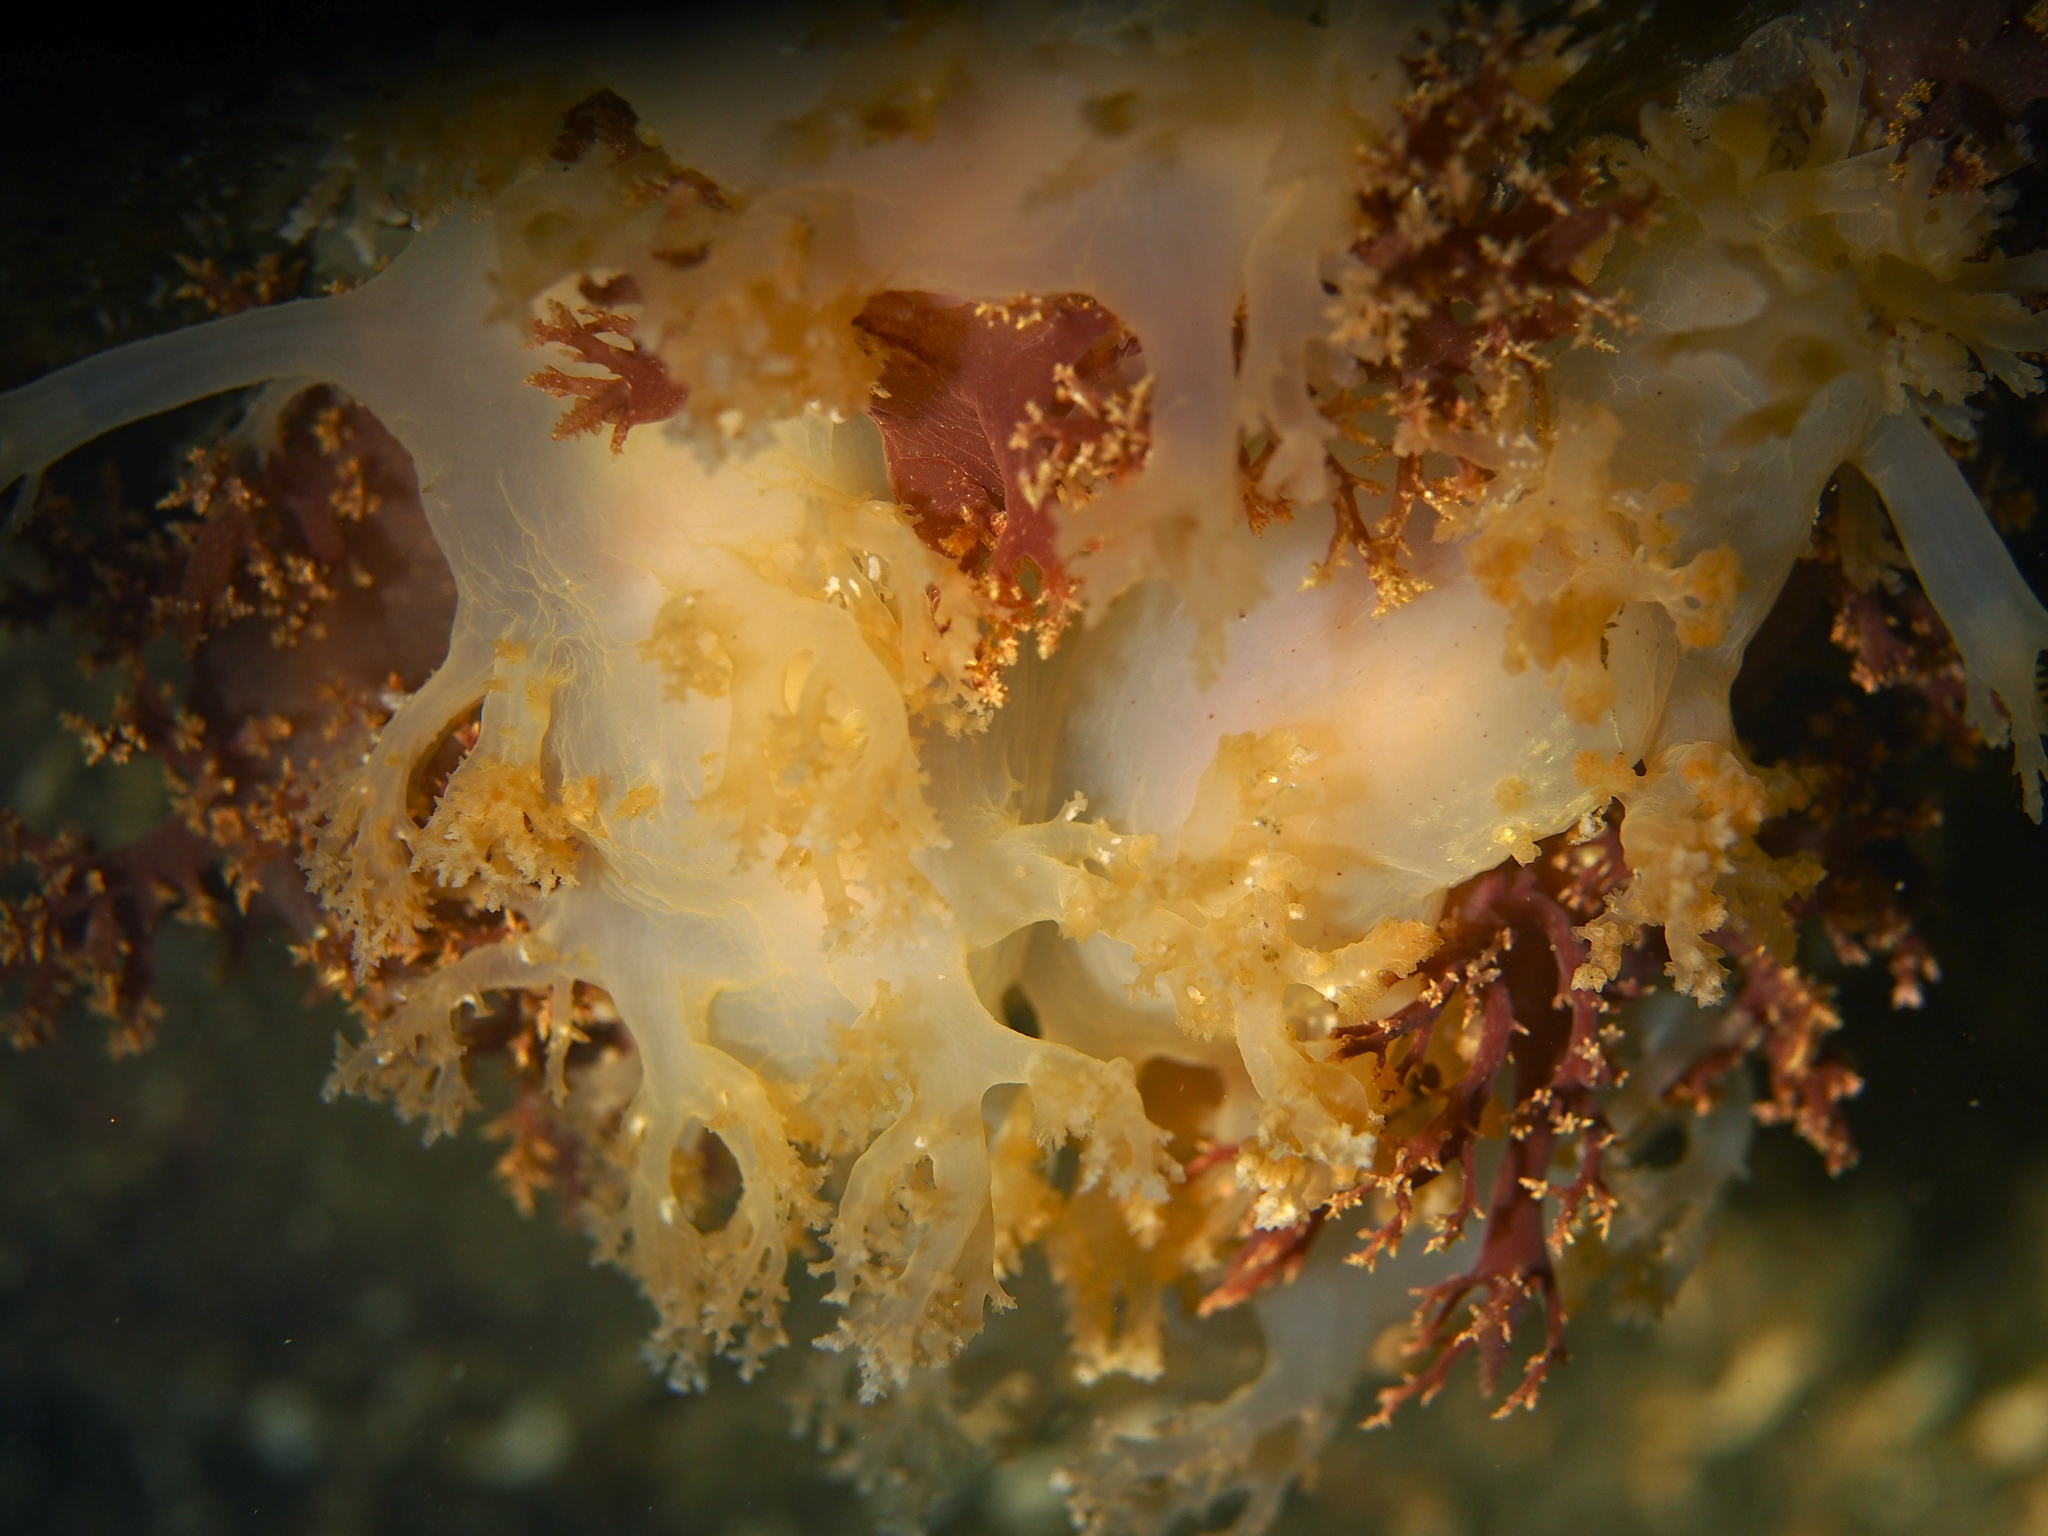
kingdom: Animalia
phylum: Mollusca
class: Gastropoda
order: Nudibranchia
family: Dendronotidae
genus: Dendronotus
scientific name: Dendronotus lacteus
